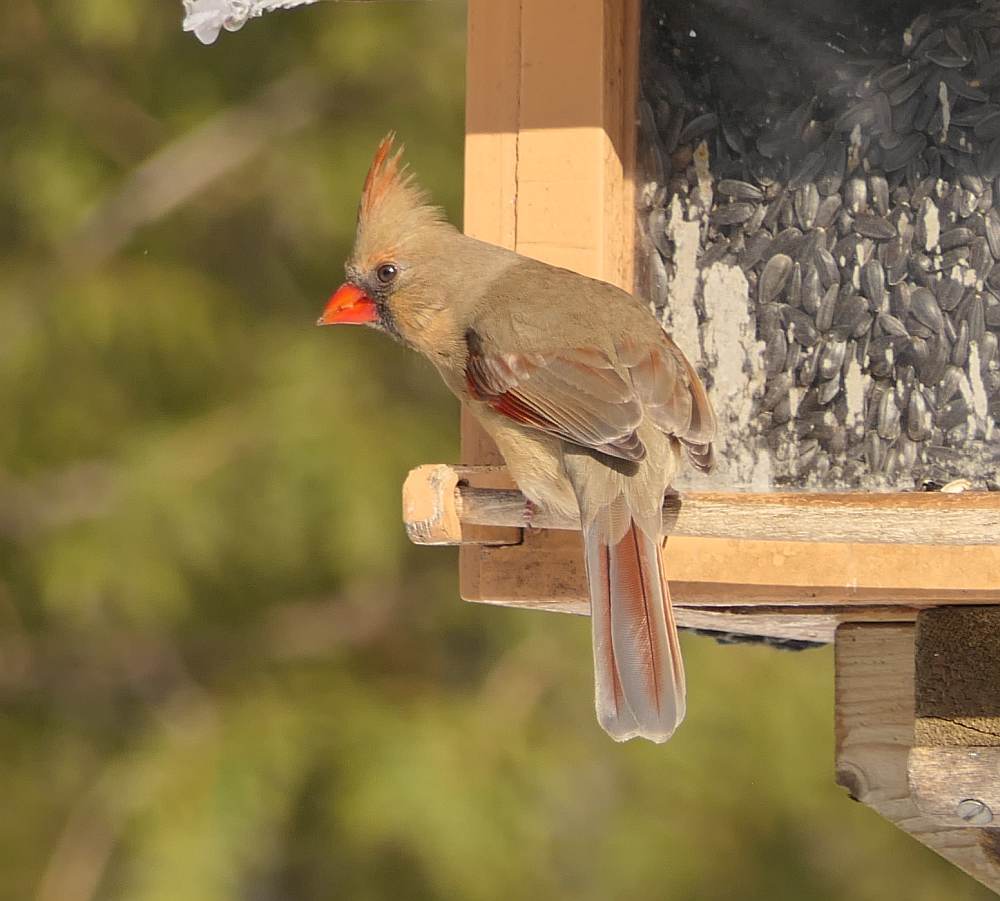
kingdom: Animalia
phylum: Chordata
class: Aves
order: Passeriformes
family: Cardinalidae
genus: Cardinalis
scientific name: Cardinalis cardinalis
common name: Northern cardinal
